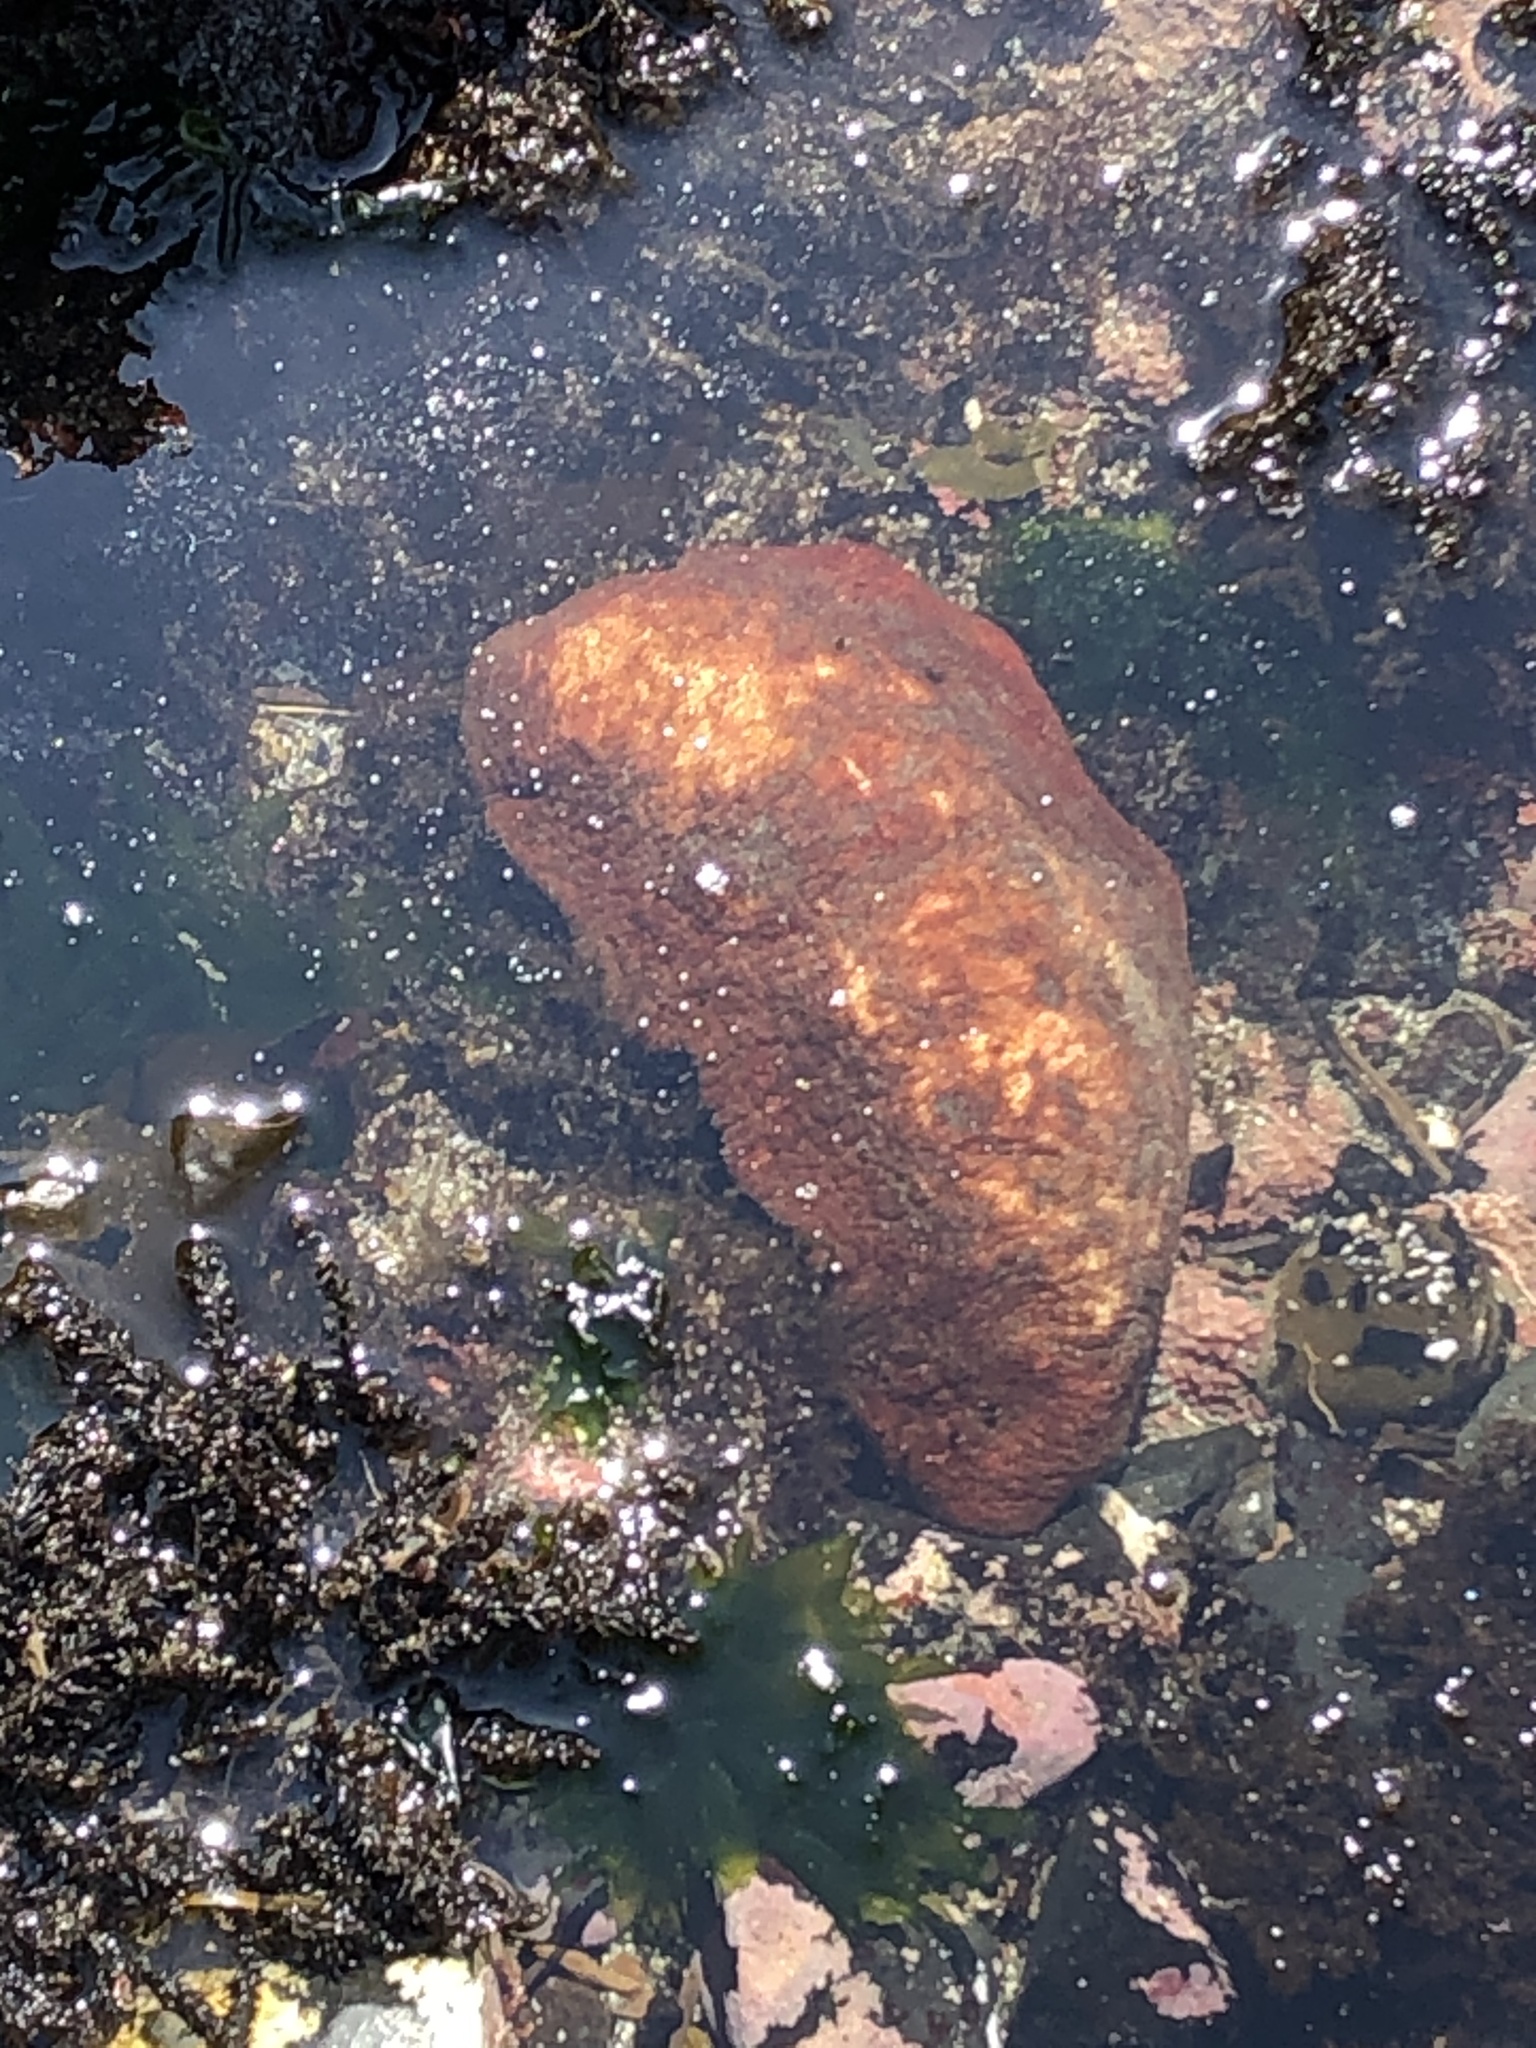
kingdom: Animalia
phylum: Mollusca
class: Polyplacophora
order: Chitonida
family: Acanthochitonidae
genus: Cryptochiton
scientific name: Cryptochiton stelleri
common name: Giant pacific chiton
